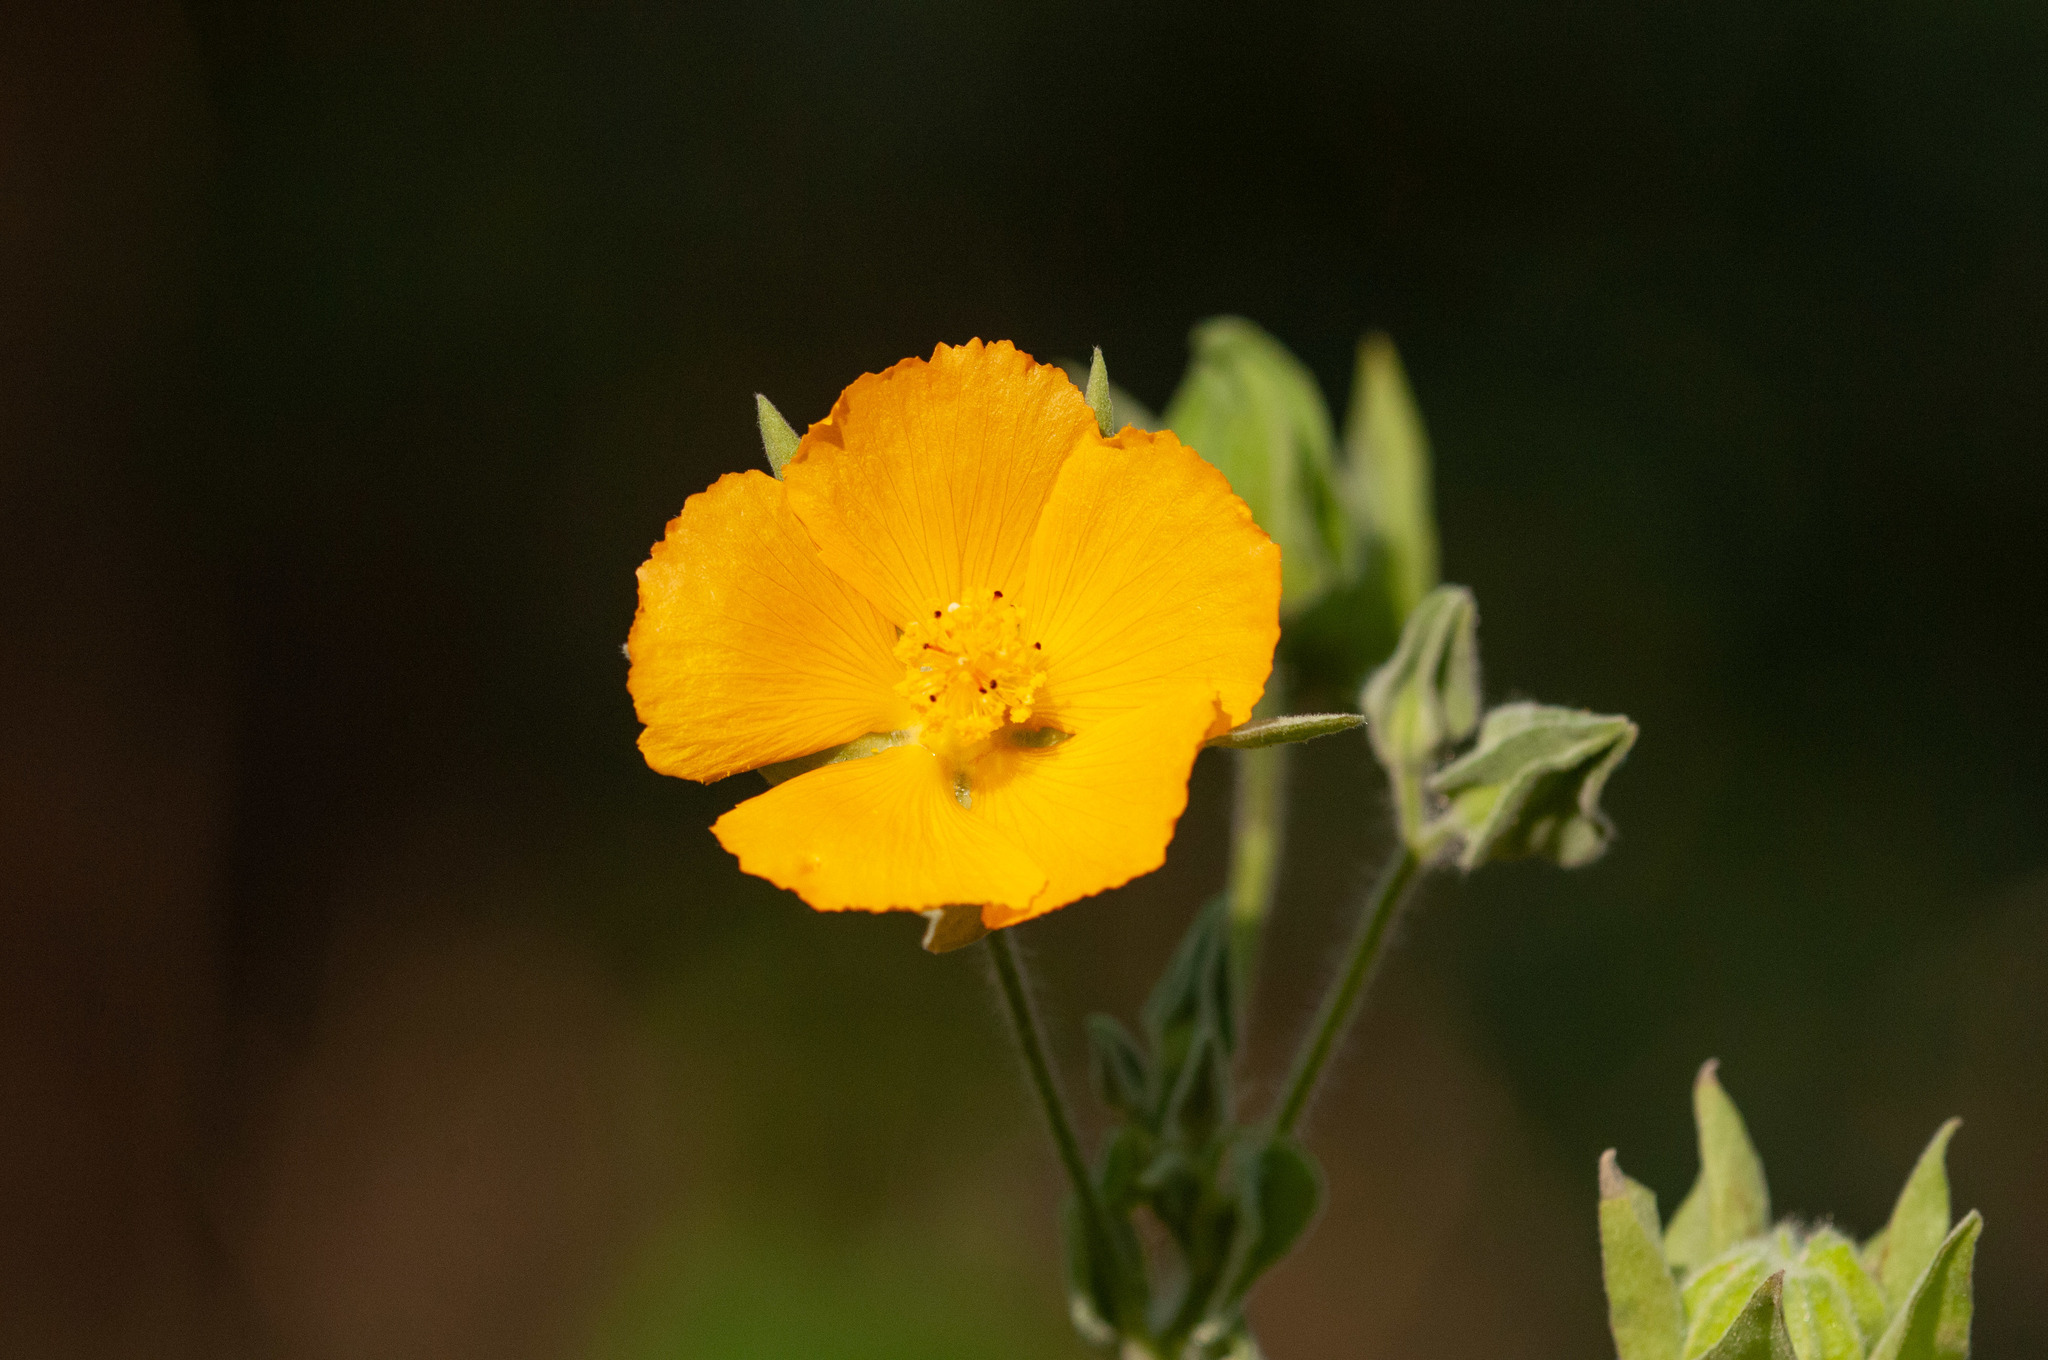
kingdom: Plantae
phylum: Tracheophyta
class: Magnoliopsida
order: Malvales
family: Malvaceae
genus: Abutilon
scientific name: Abutilon grandifolium
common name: Hairy abutilon
